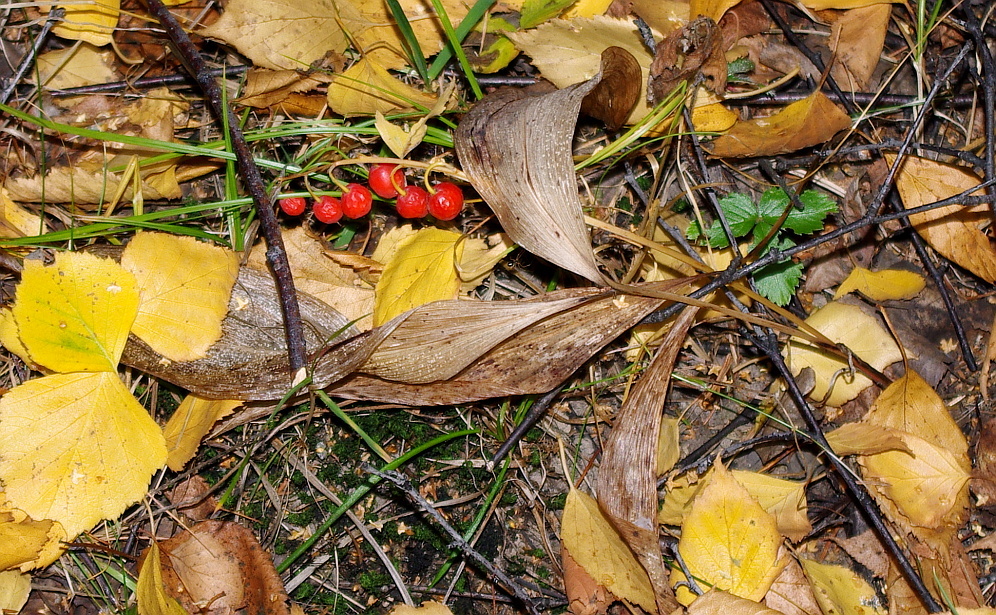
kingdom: Plantae
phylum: Tracheophyta
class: Liliopsida
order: Asparagales
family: Asparagaceae
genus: Convallaria
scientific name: Convallaria majalis
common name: Lily-of-the-valley
